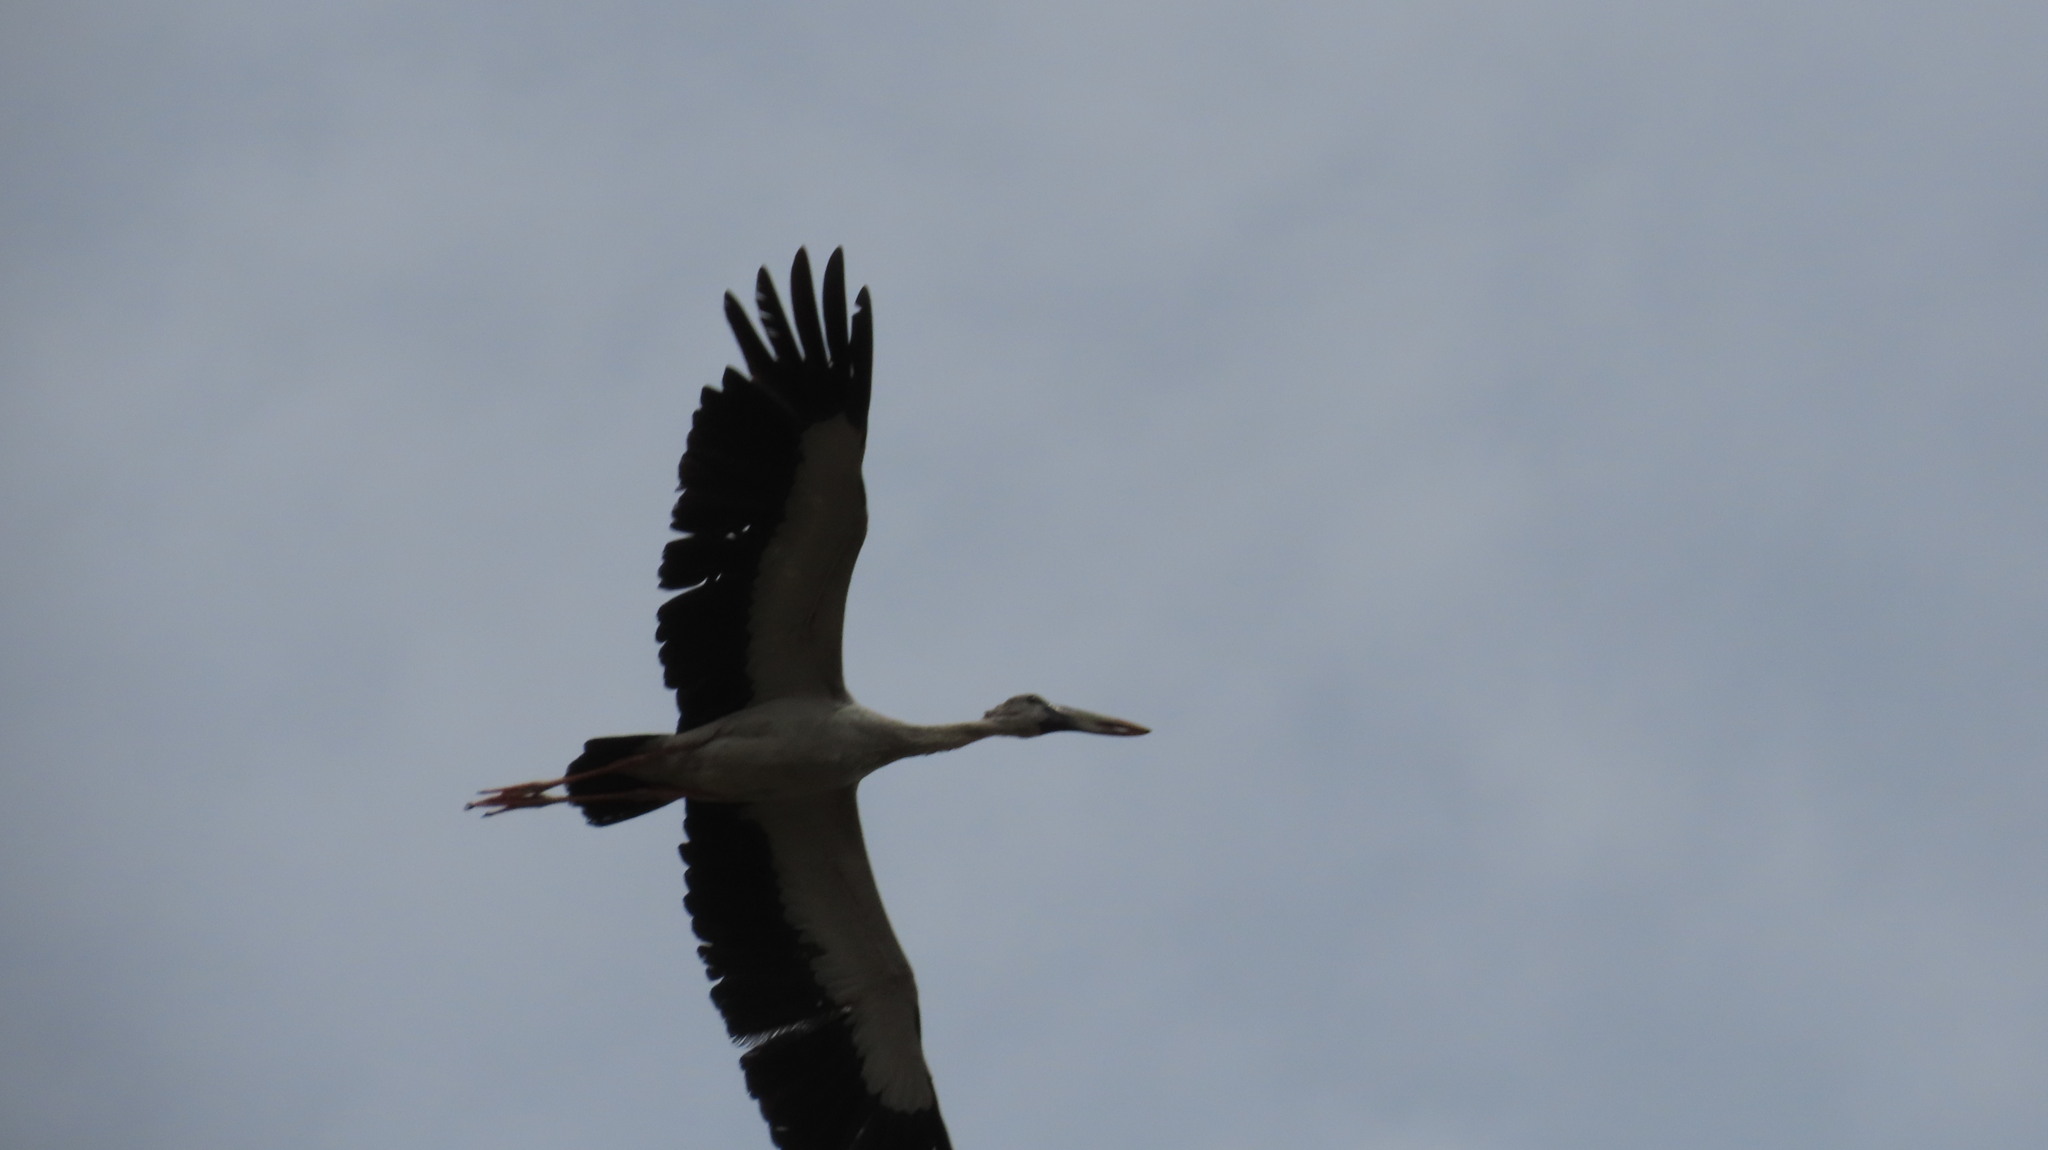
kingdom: Animalia
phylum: Chordata
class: Aves
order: Ciconiiformes
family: Ciconiidae
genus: Anastomus
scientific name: Anastomus oscitans
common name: Asian openbill
